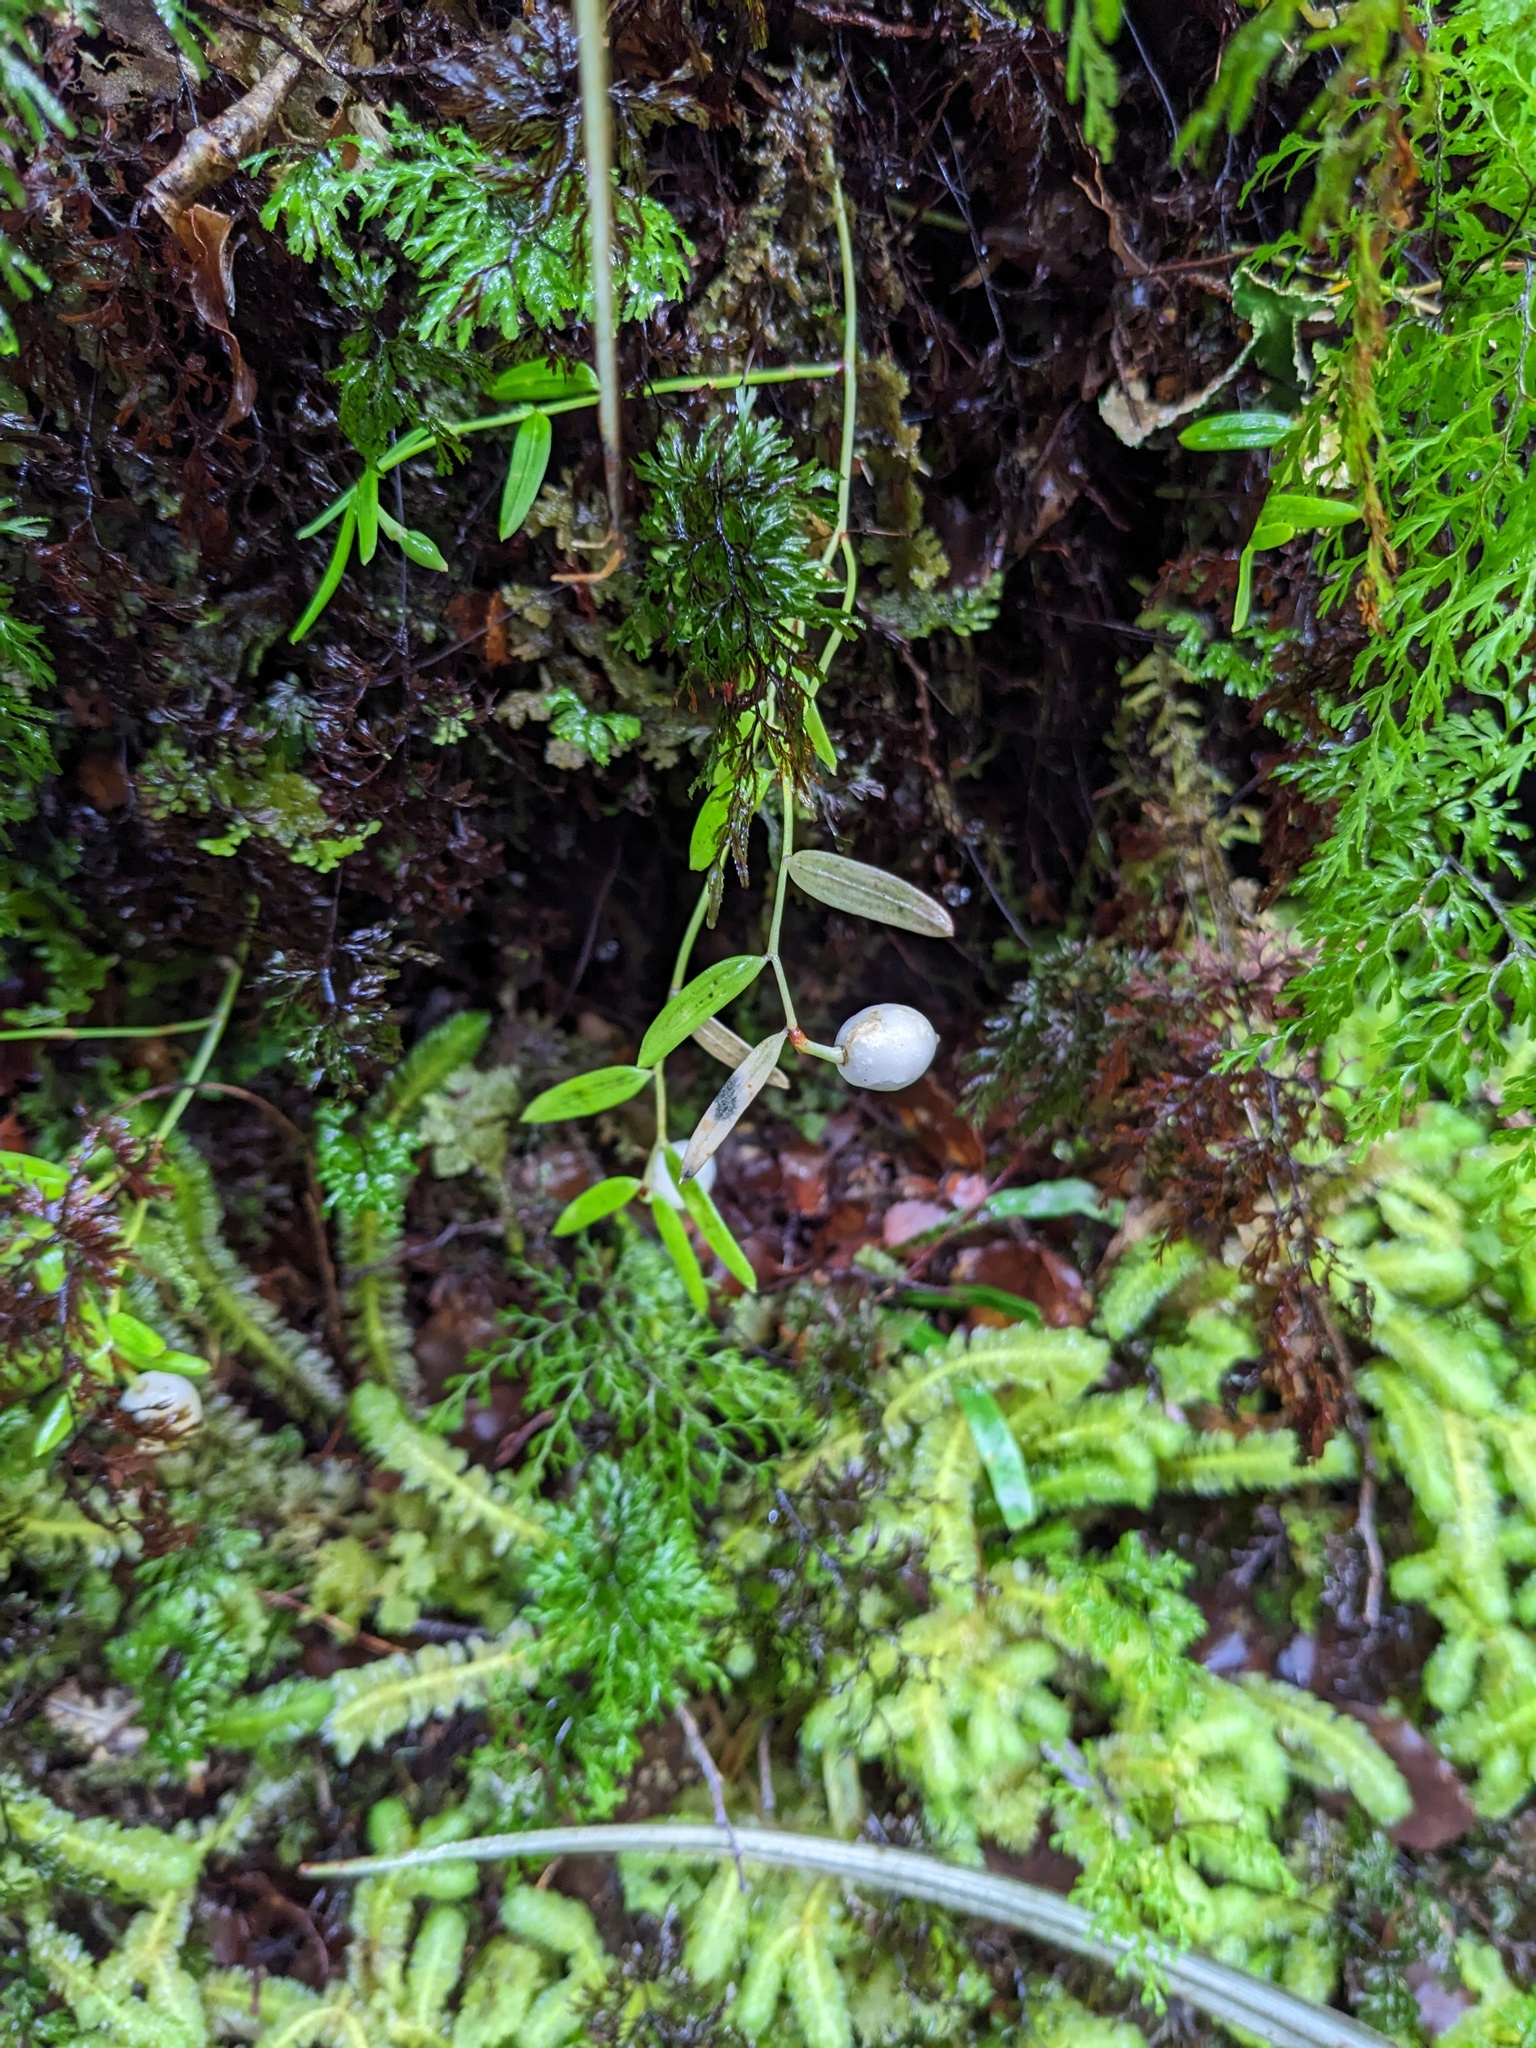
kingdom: Plantae
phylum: Tracheophyta
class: Liliopsida
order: Liliales
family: Alstroemeriaceae
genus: Luzuriaga
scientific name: Luzuriaga parviflora
